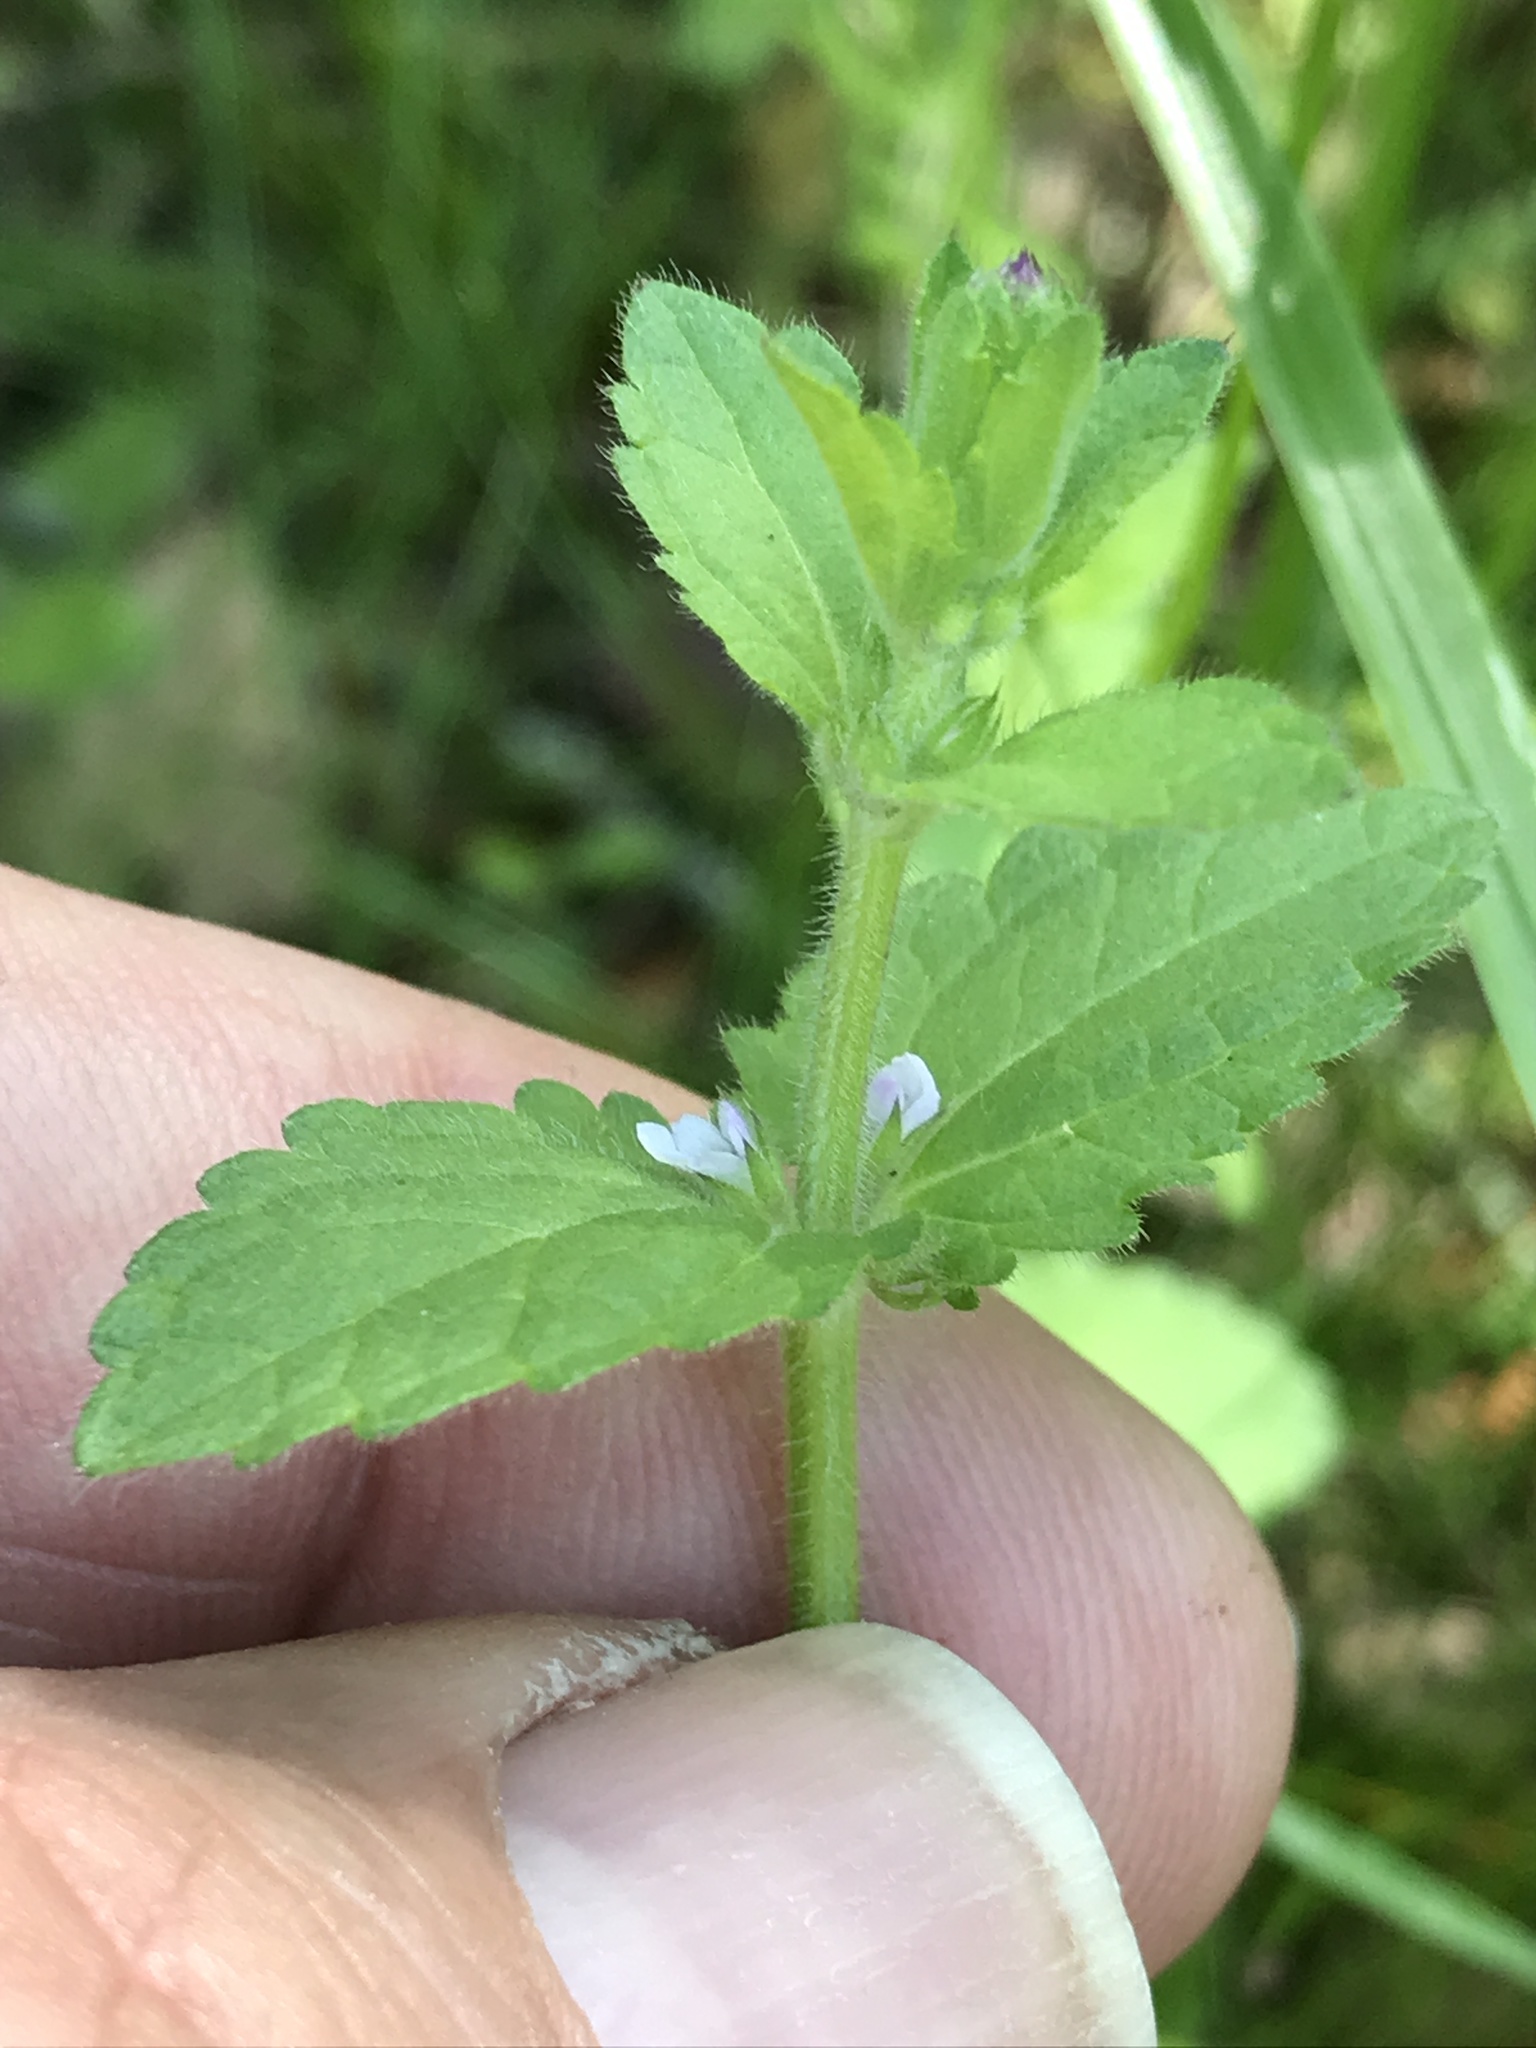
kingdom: Plantae
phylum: Tracheophyta
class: Magnoliopsida
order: Lamiales
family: Lamiaceae
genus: Stachys
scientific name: Stachys
